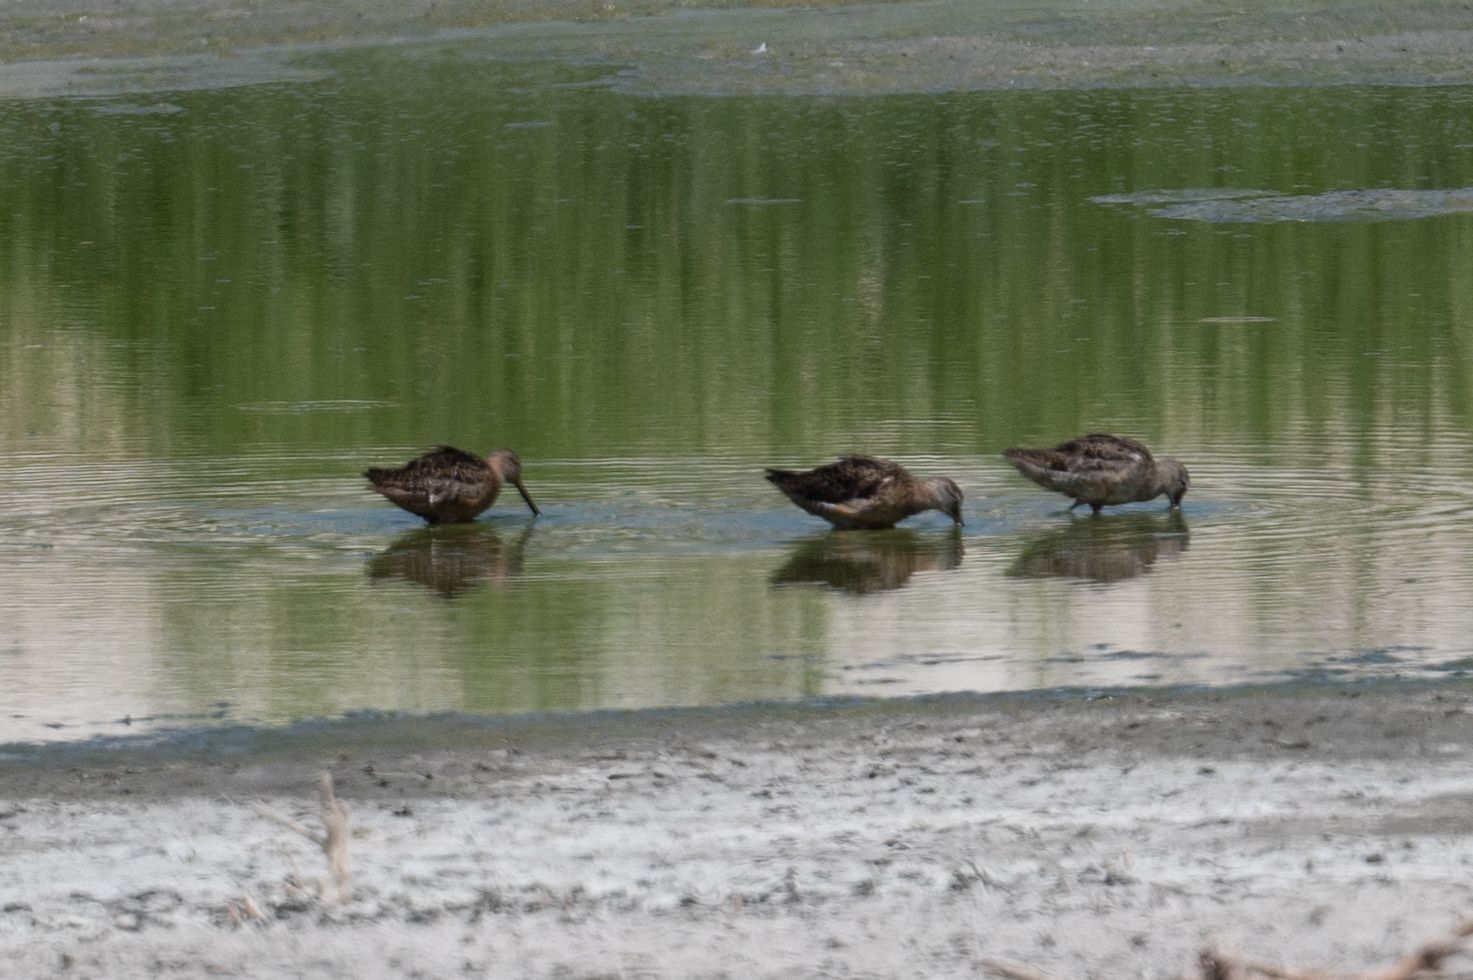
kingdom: Animalia
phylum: Chordata
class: Aves
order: Charadriiformes
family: Scolopacidae
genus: Limnodromus
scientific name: Limnodromus scolopaceus
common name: Long-billed dowitcher
